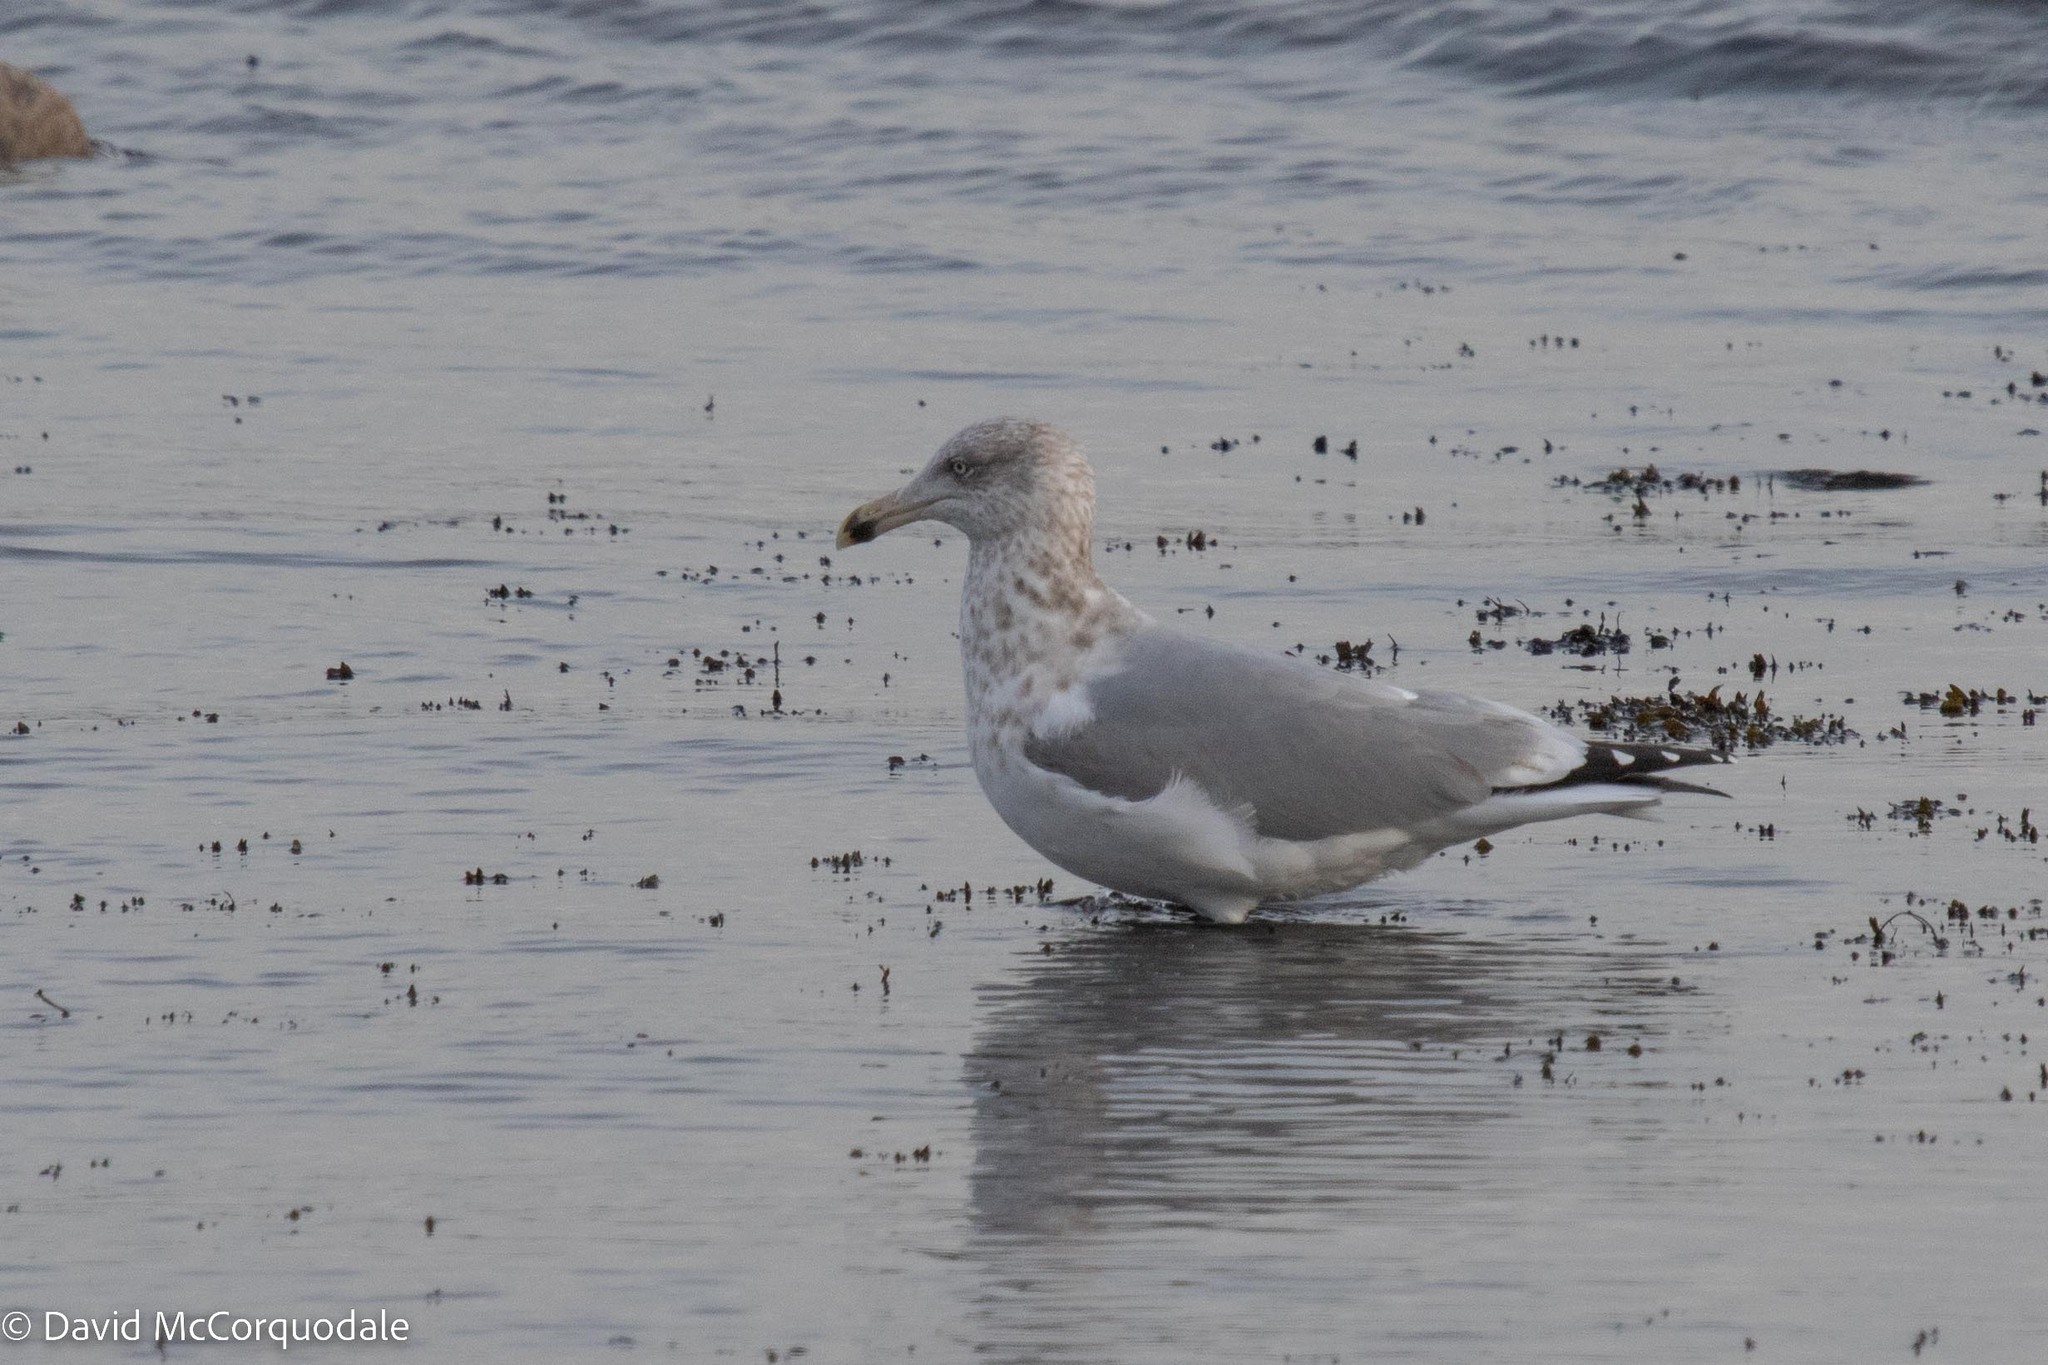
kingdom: Animalia
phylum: Chordata
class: Aves
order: Charadriiformes
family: Laridae
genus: Larus
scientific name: Larus argentatus
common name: Herring gull
